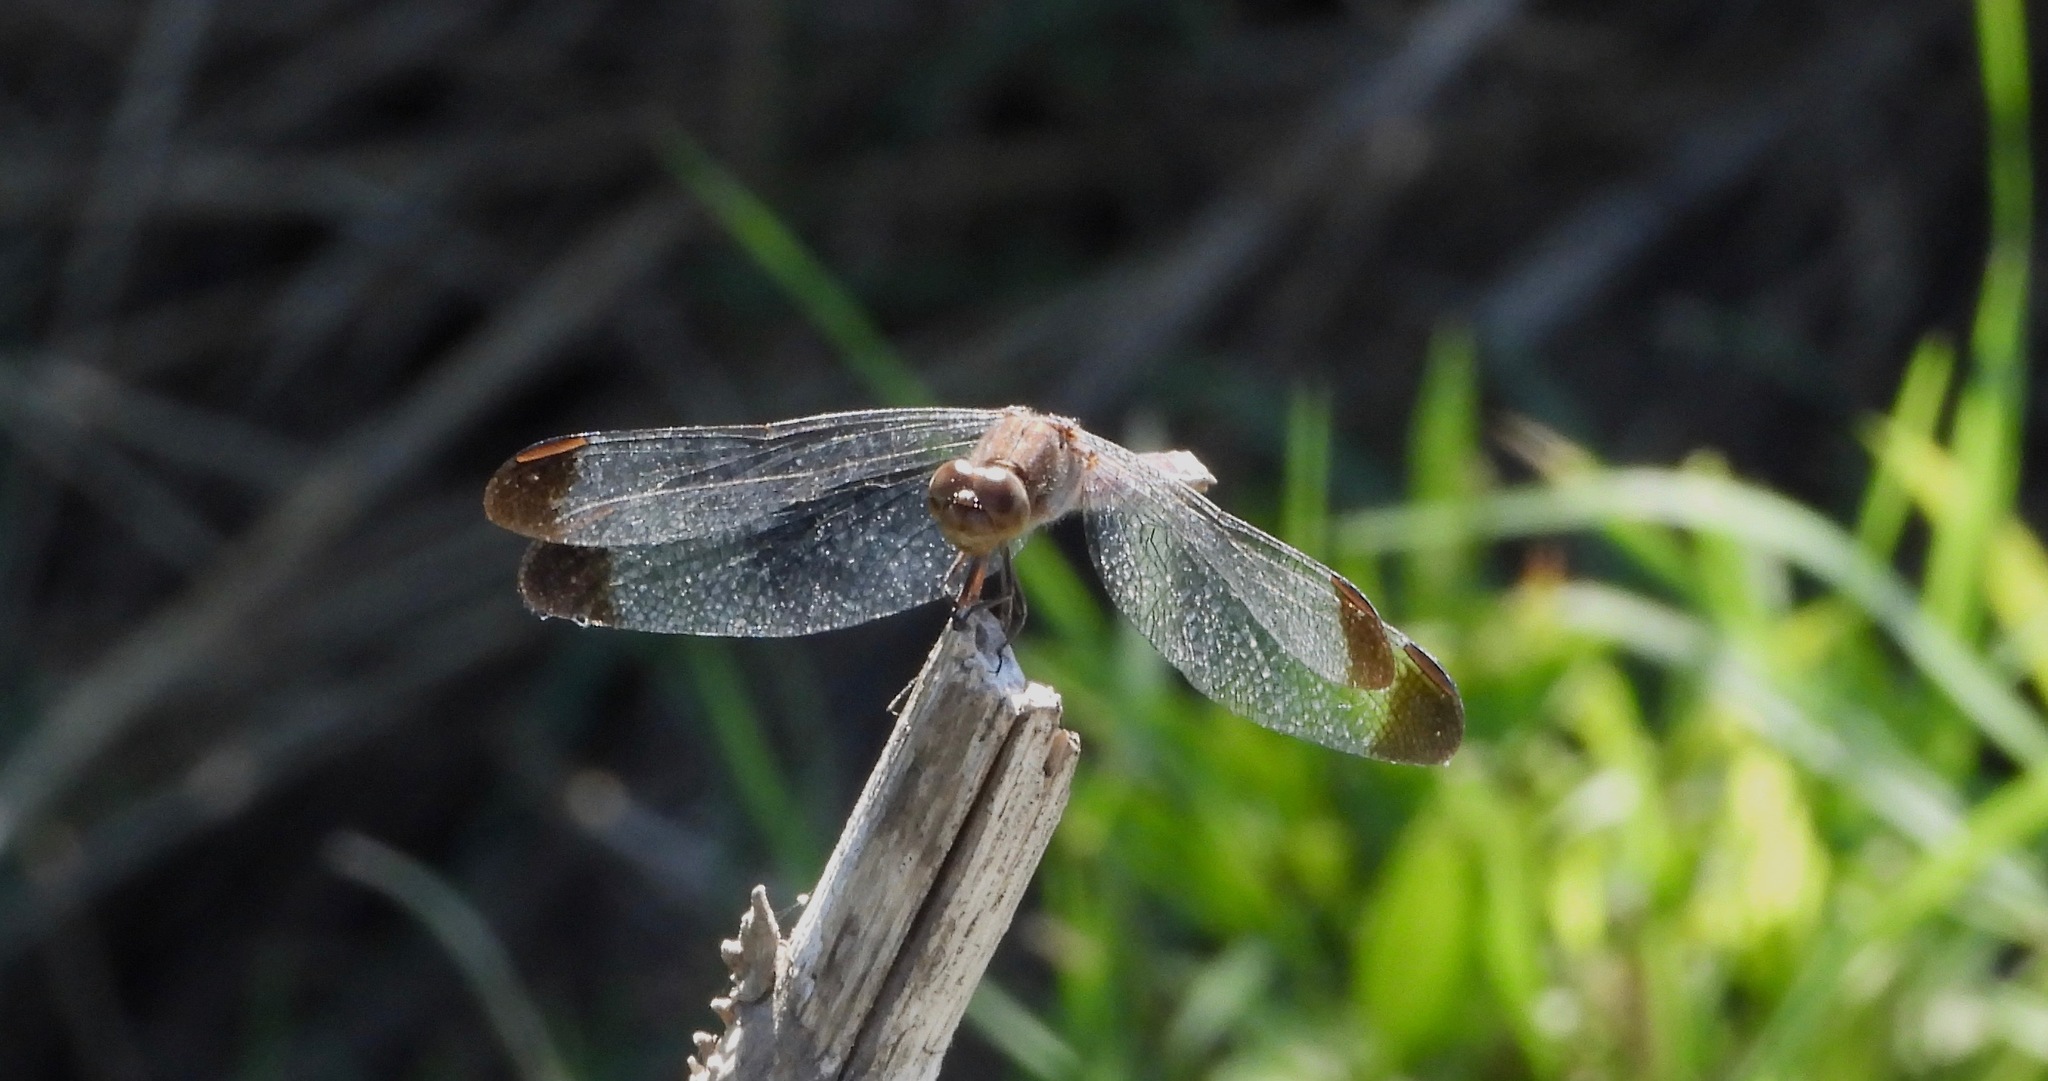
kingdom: Animalia
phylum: Arthropoda
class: Insecta
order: Odonata
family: Libellulidae
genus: Erythrodiplax
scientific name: Erythrodiplax atroterminata
